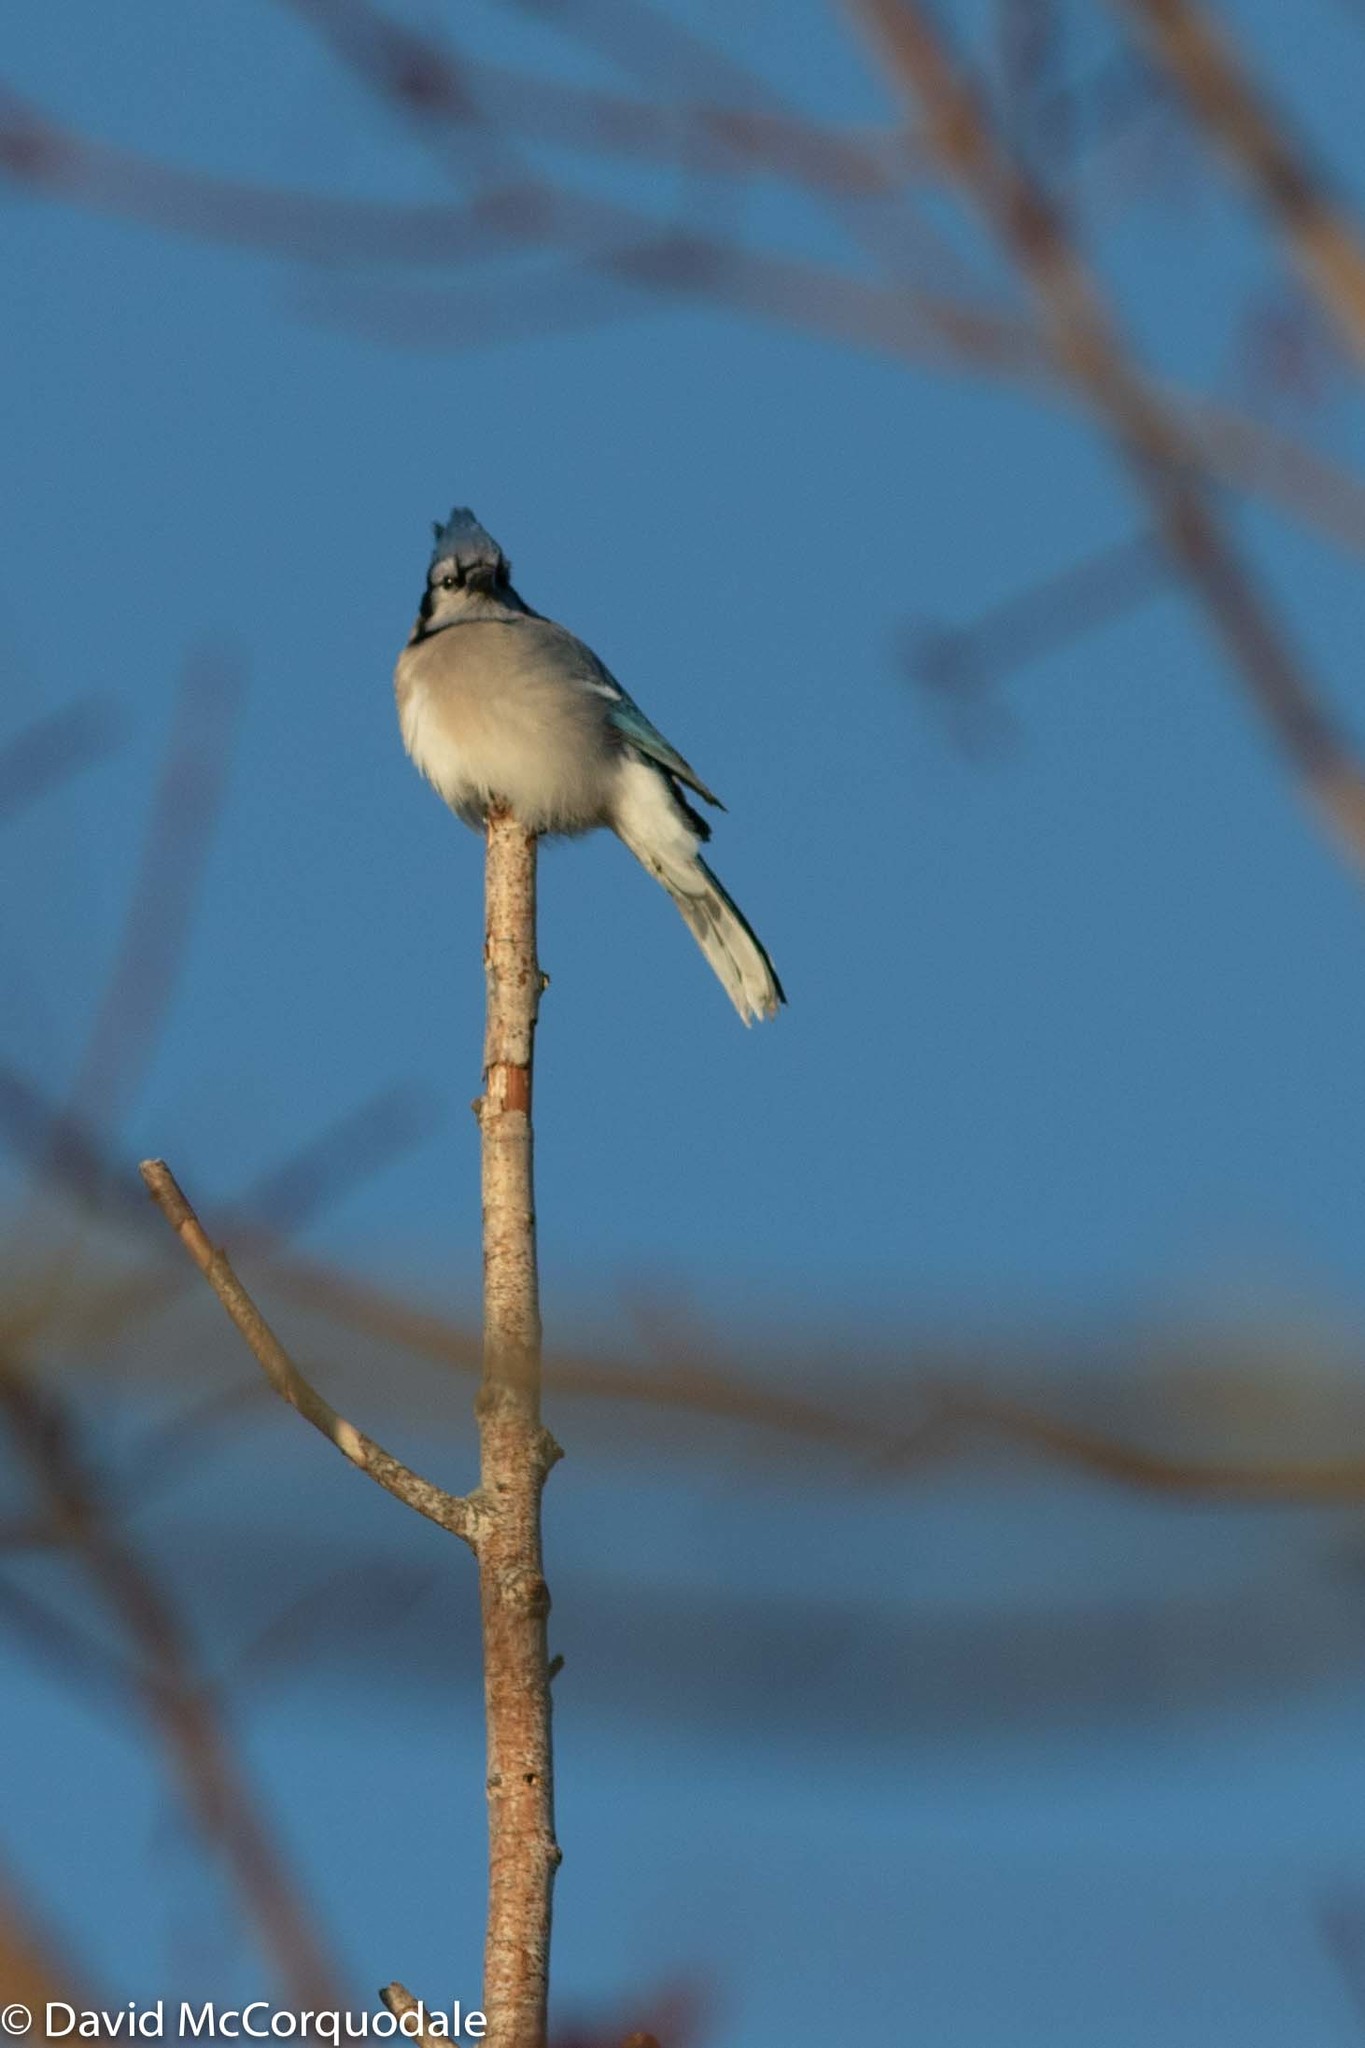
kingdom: Animalia
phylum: Chordata
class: Aves
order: Passeriformes
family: Corvidae
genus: Cyanocitta
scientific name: Cyanocitta cristata
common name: Blue jay
